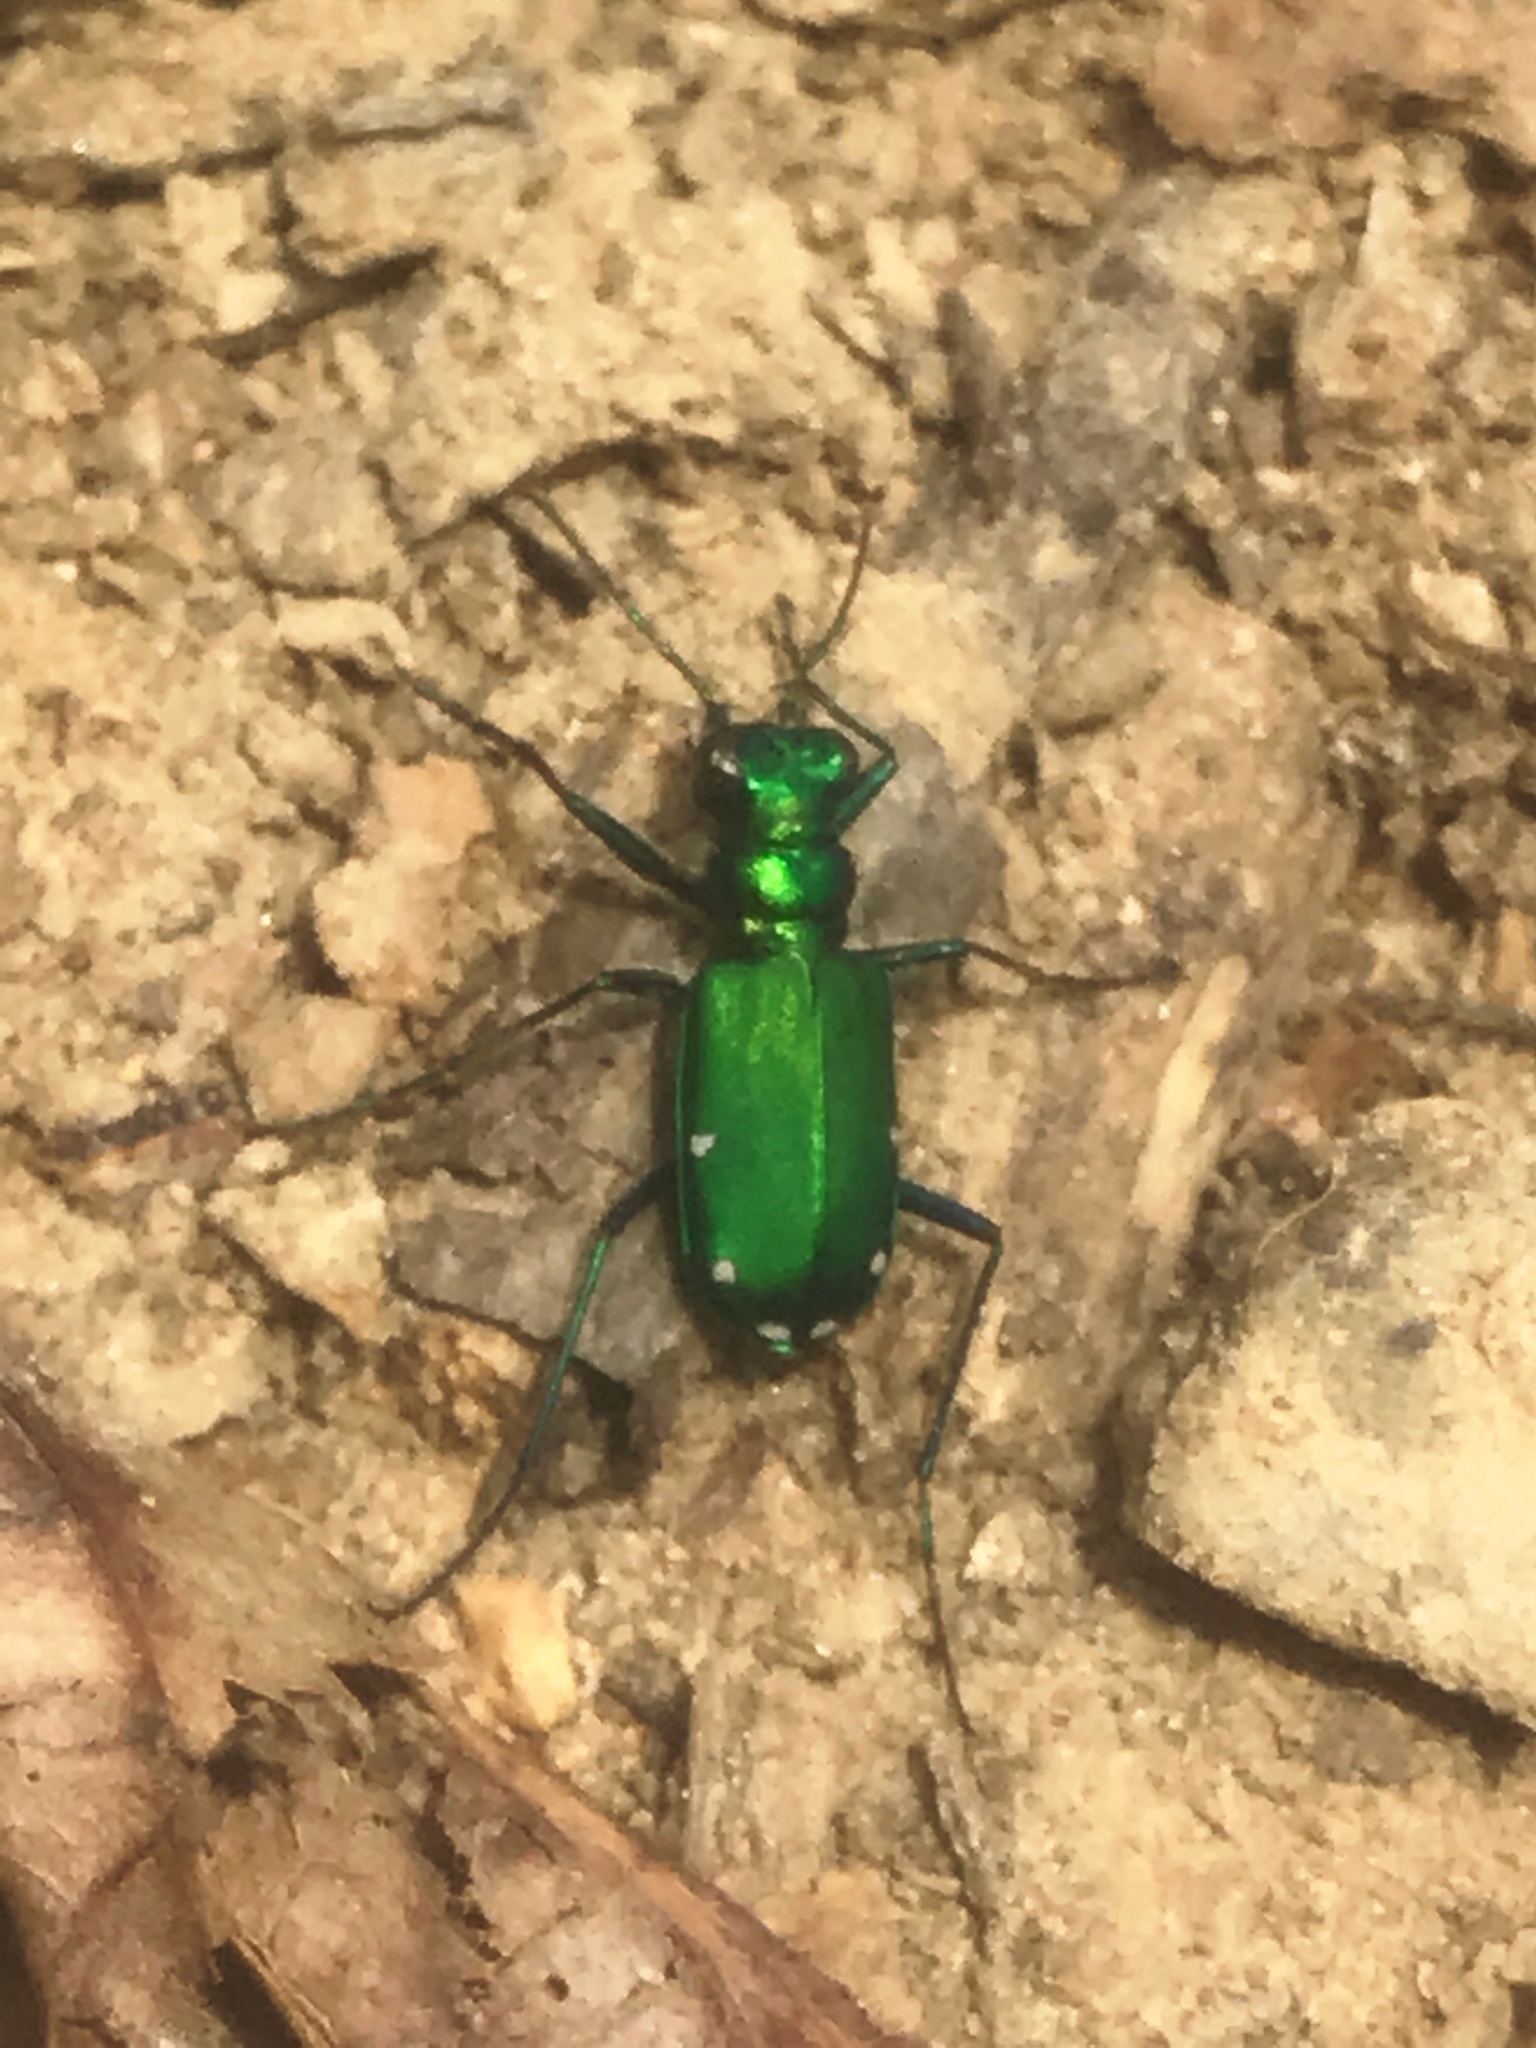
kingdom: Animalia
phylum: Arthropoda
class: Insecta
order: Coleoptera
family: Carabidae
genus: Cicindela
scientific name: Cicindela sexguttata
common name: Six-spotted tiger beetle
